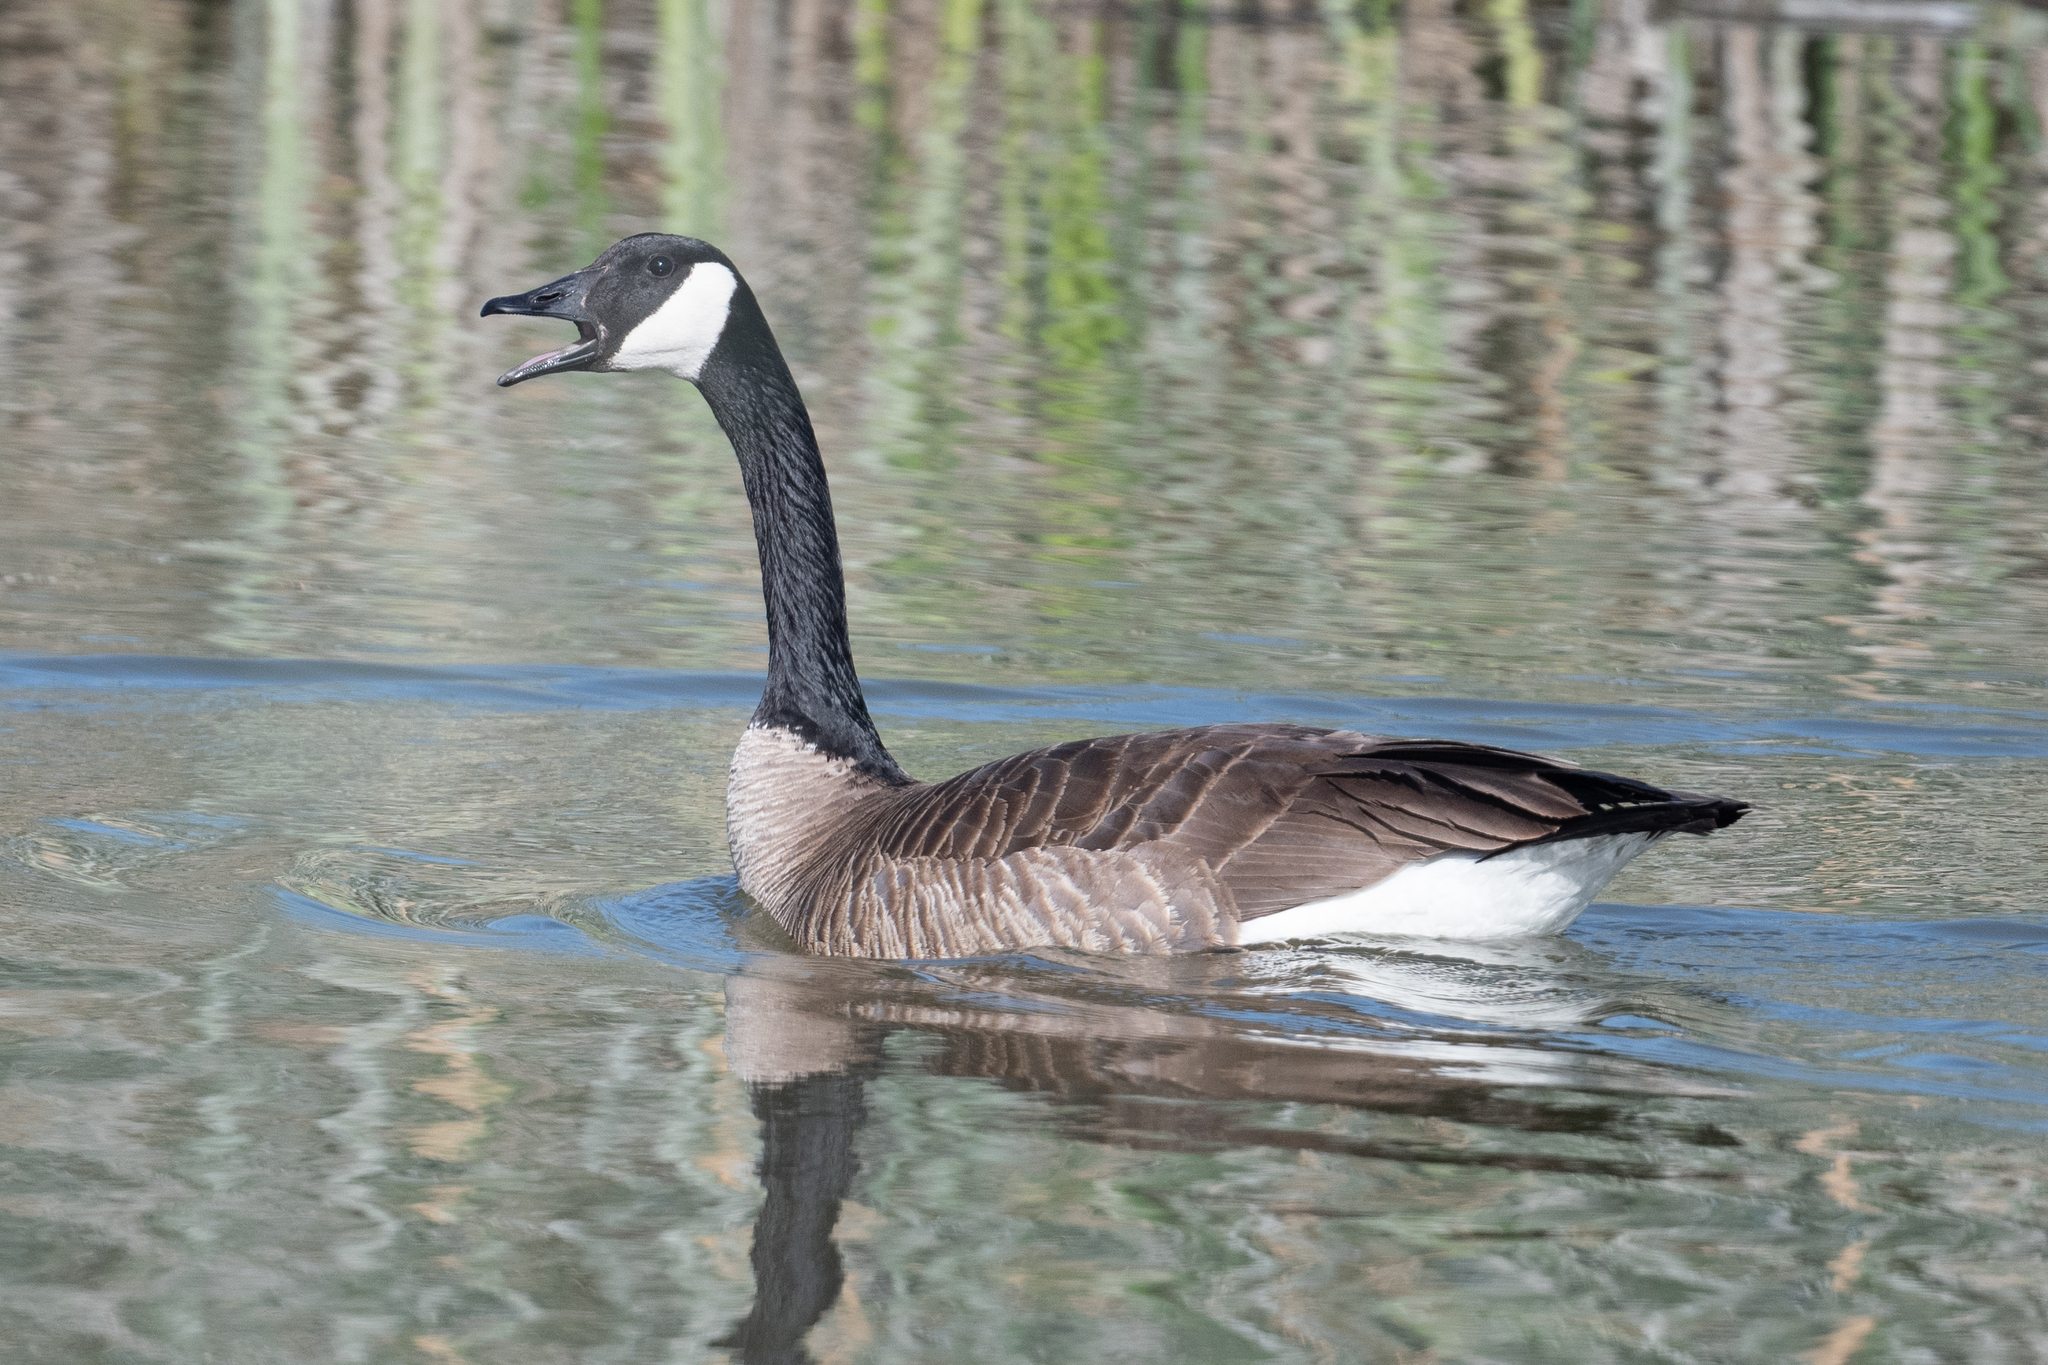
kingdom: Animalia
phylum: Chordata
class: Aves
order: Anseriformes
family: Anatidae
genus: Branta
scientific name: Branta canadensis
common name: Canada goose
